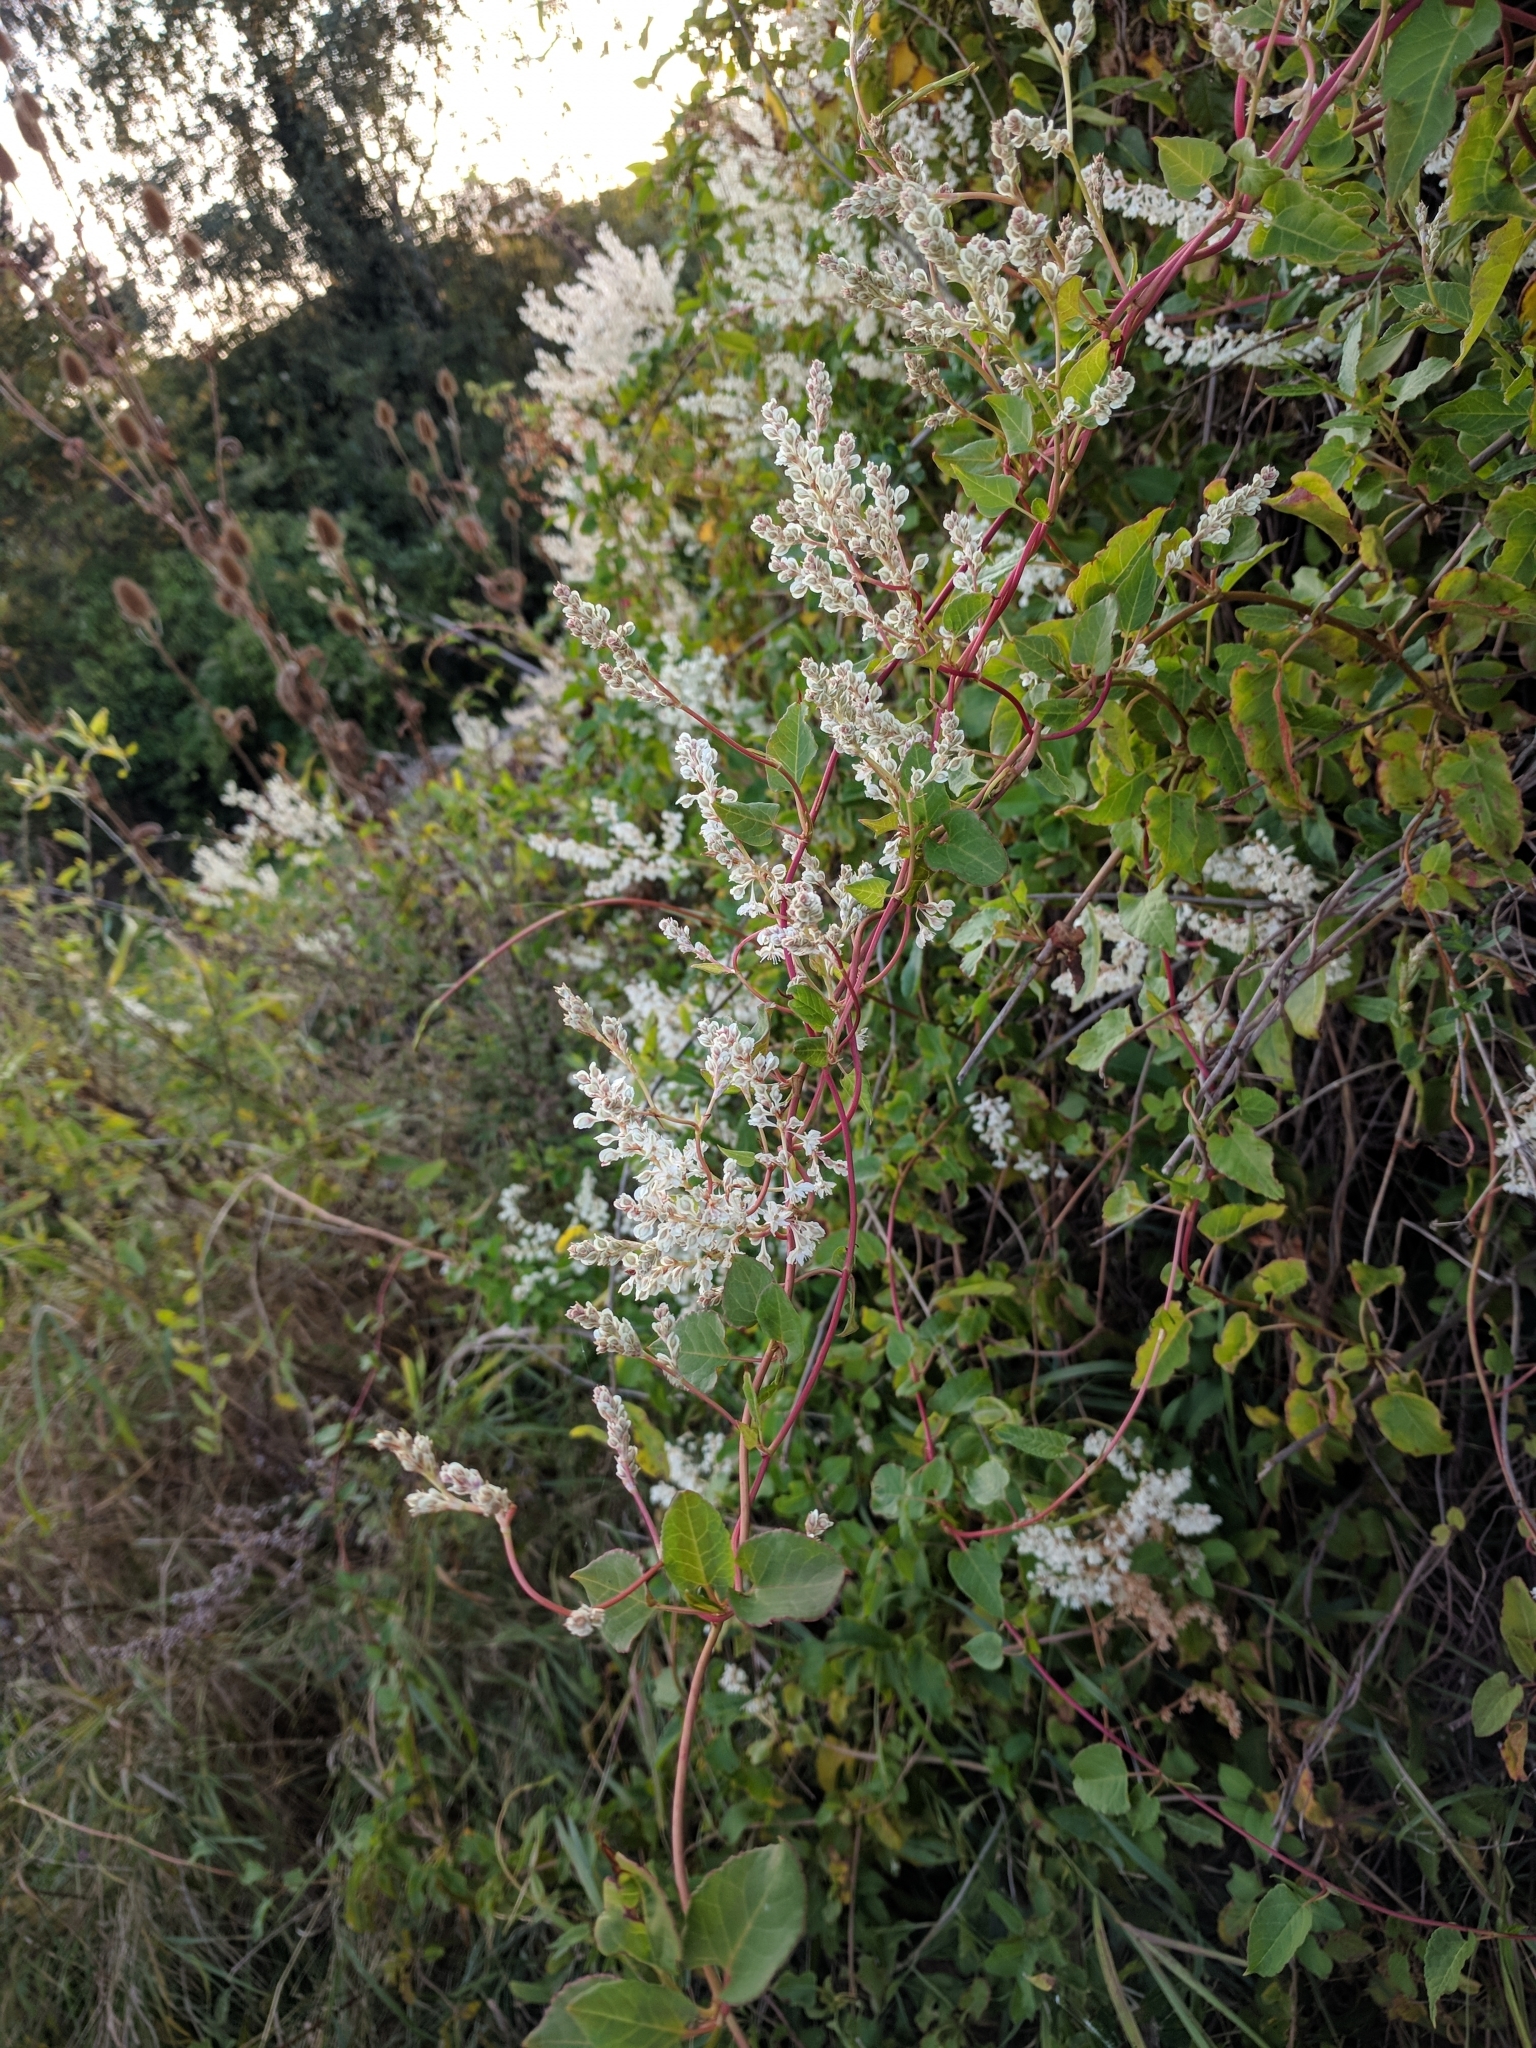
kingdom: Plantae
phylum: Tracheophyta
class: Magnoliopsida
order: Caryophyllales
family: Polygonaceae
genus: Fallopia
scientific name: Fallopia baldschuanica
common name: Russian-vine
